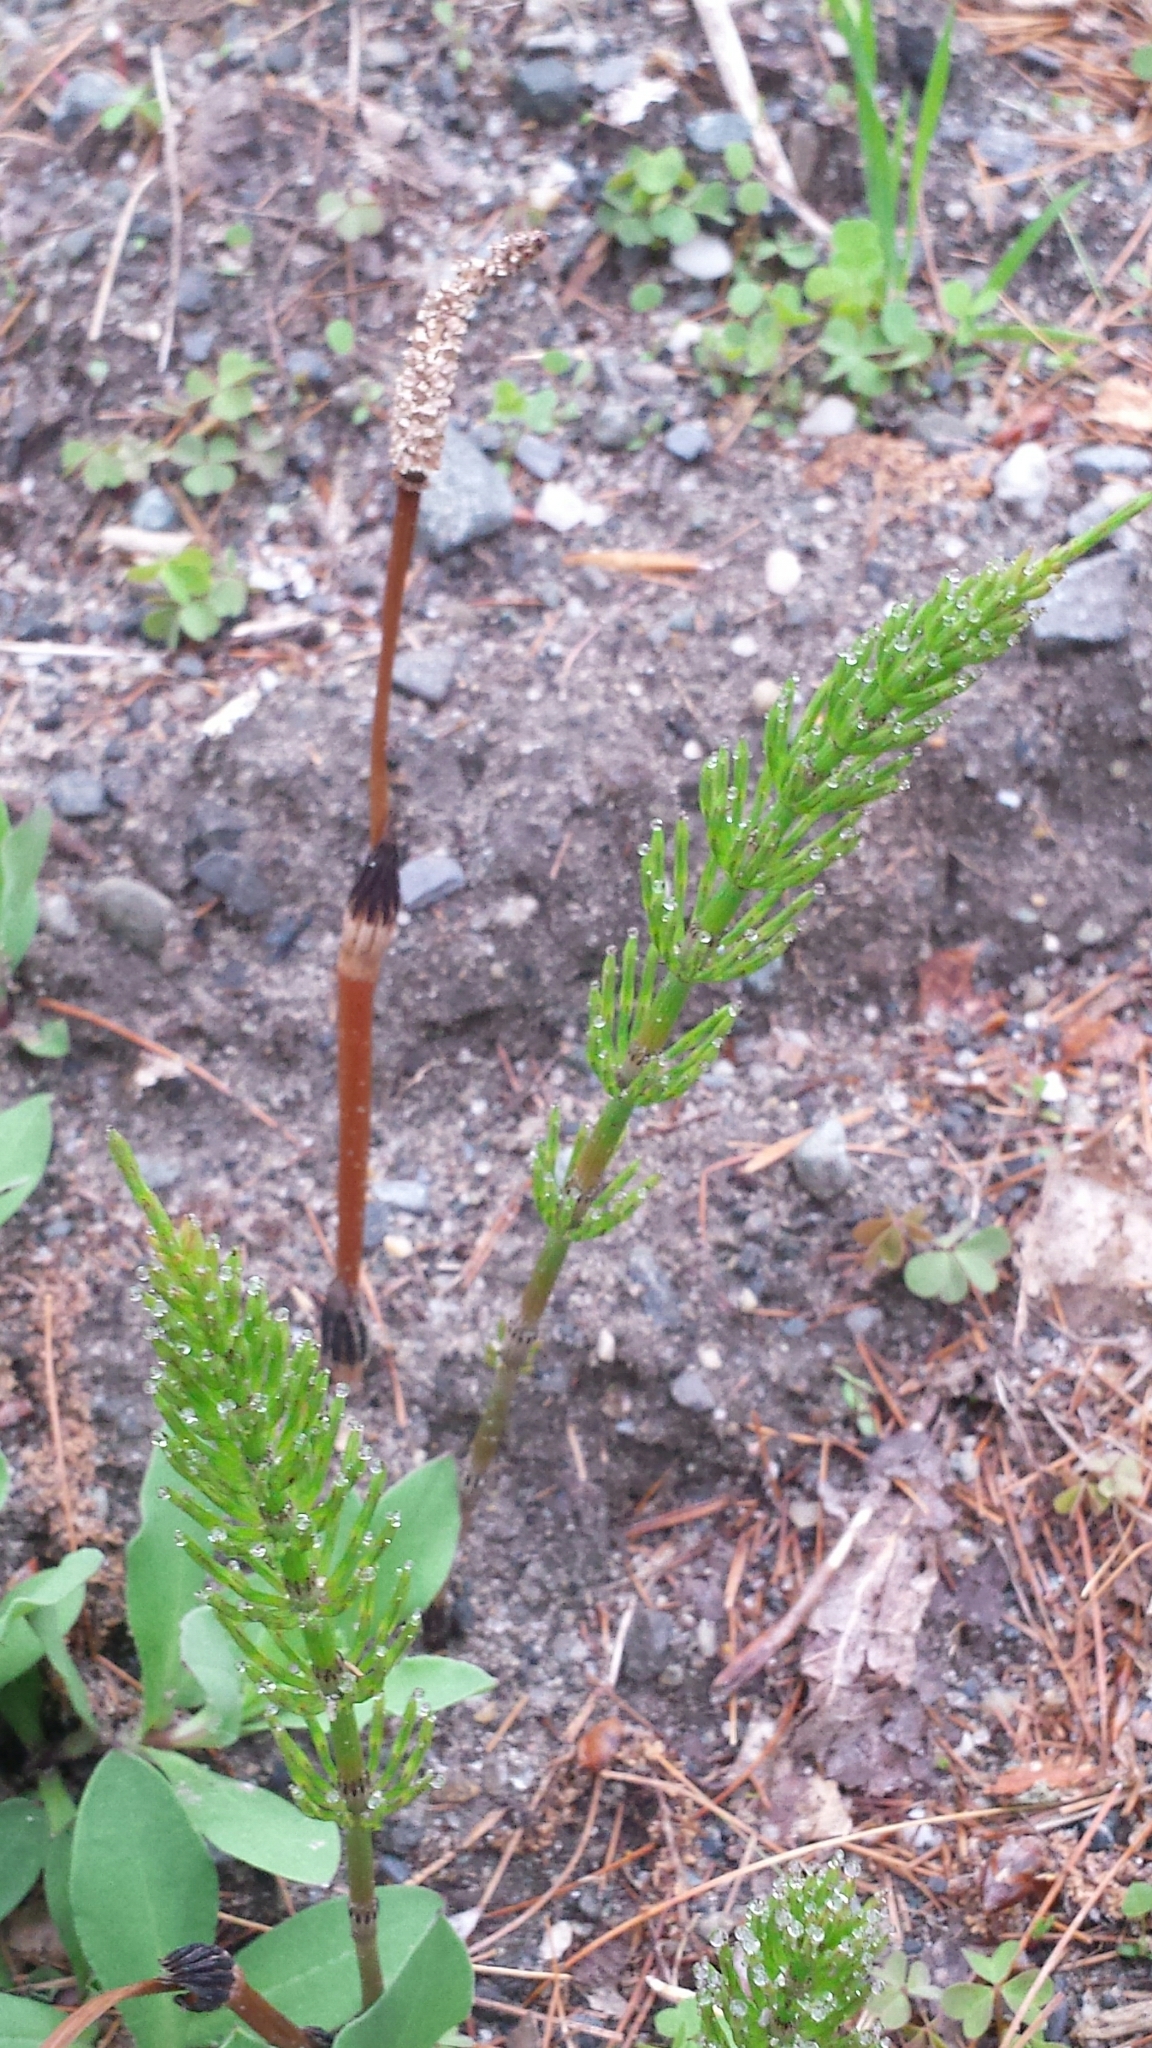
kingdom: Plantae
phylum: Tracheophyta
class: Polypodiopsida
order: Equisetales
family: Equisetaceae
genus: Equisetum
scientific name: Equisetum arvense
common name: Field horsetail
